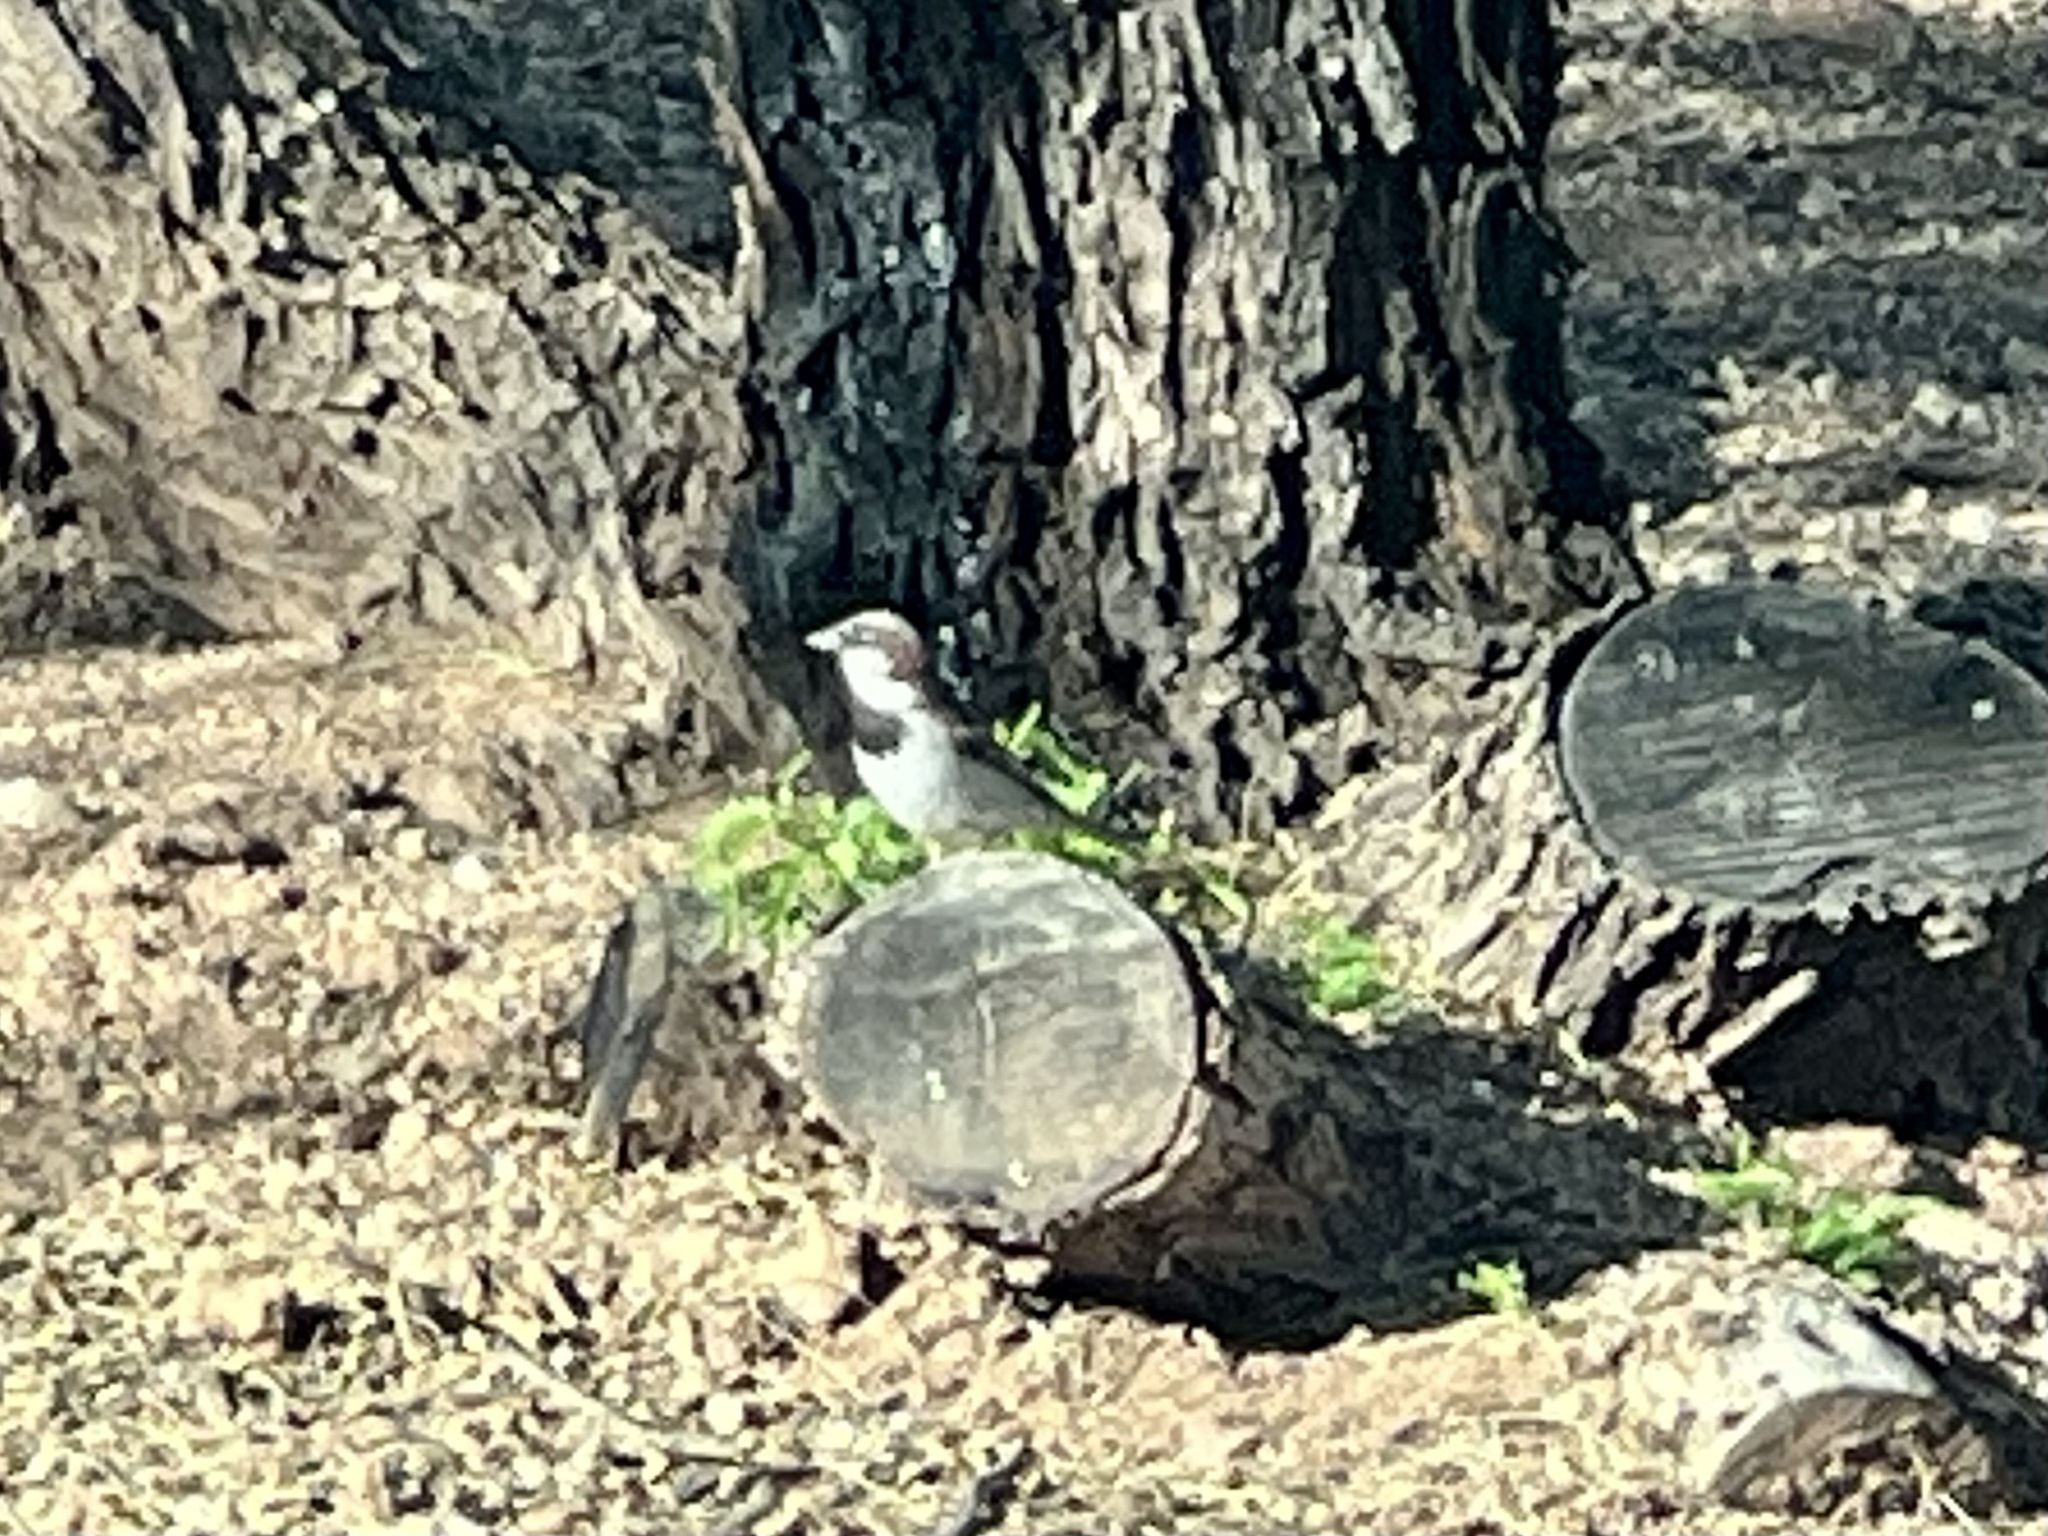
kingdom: Animalia
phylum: Chordata
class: Aves
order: Passeriformes
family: Passeridae
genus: Passer
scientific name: Passer domesticus
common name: House sparrow
